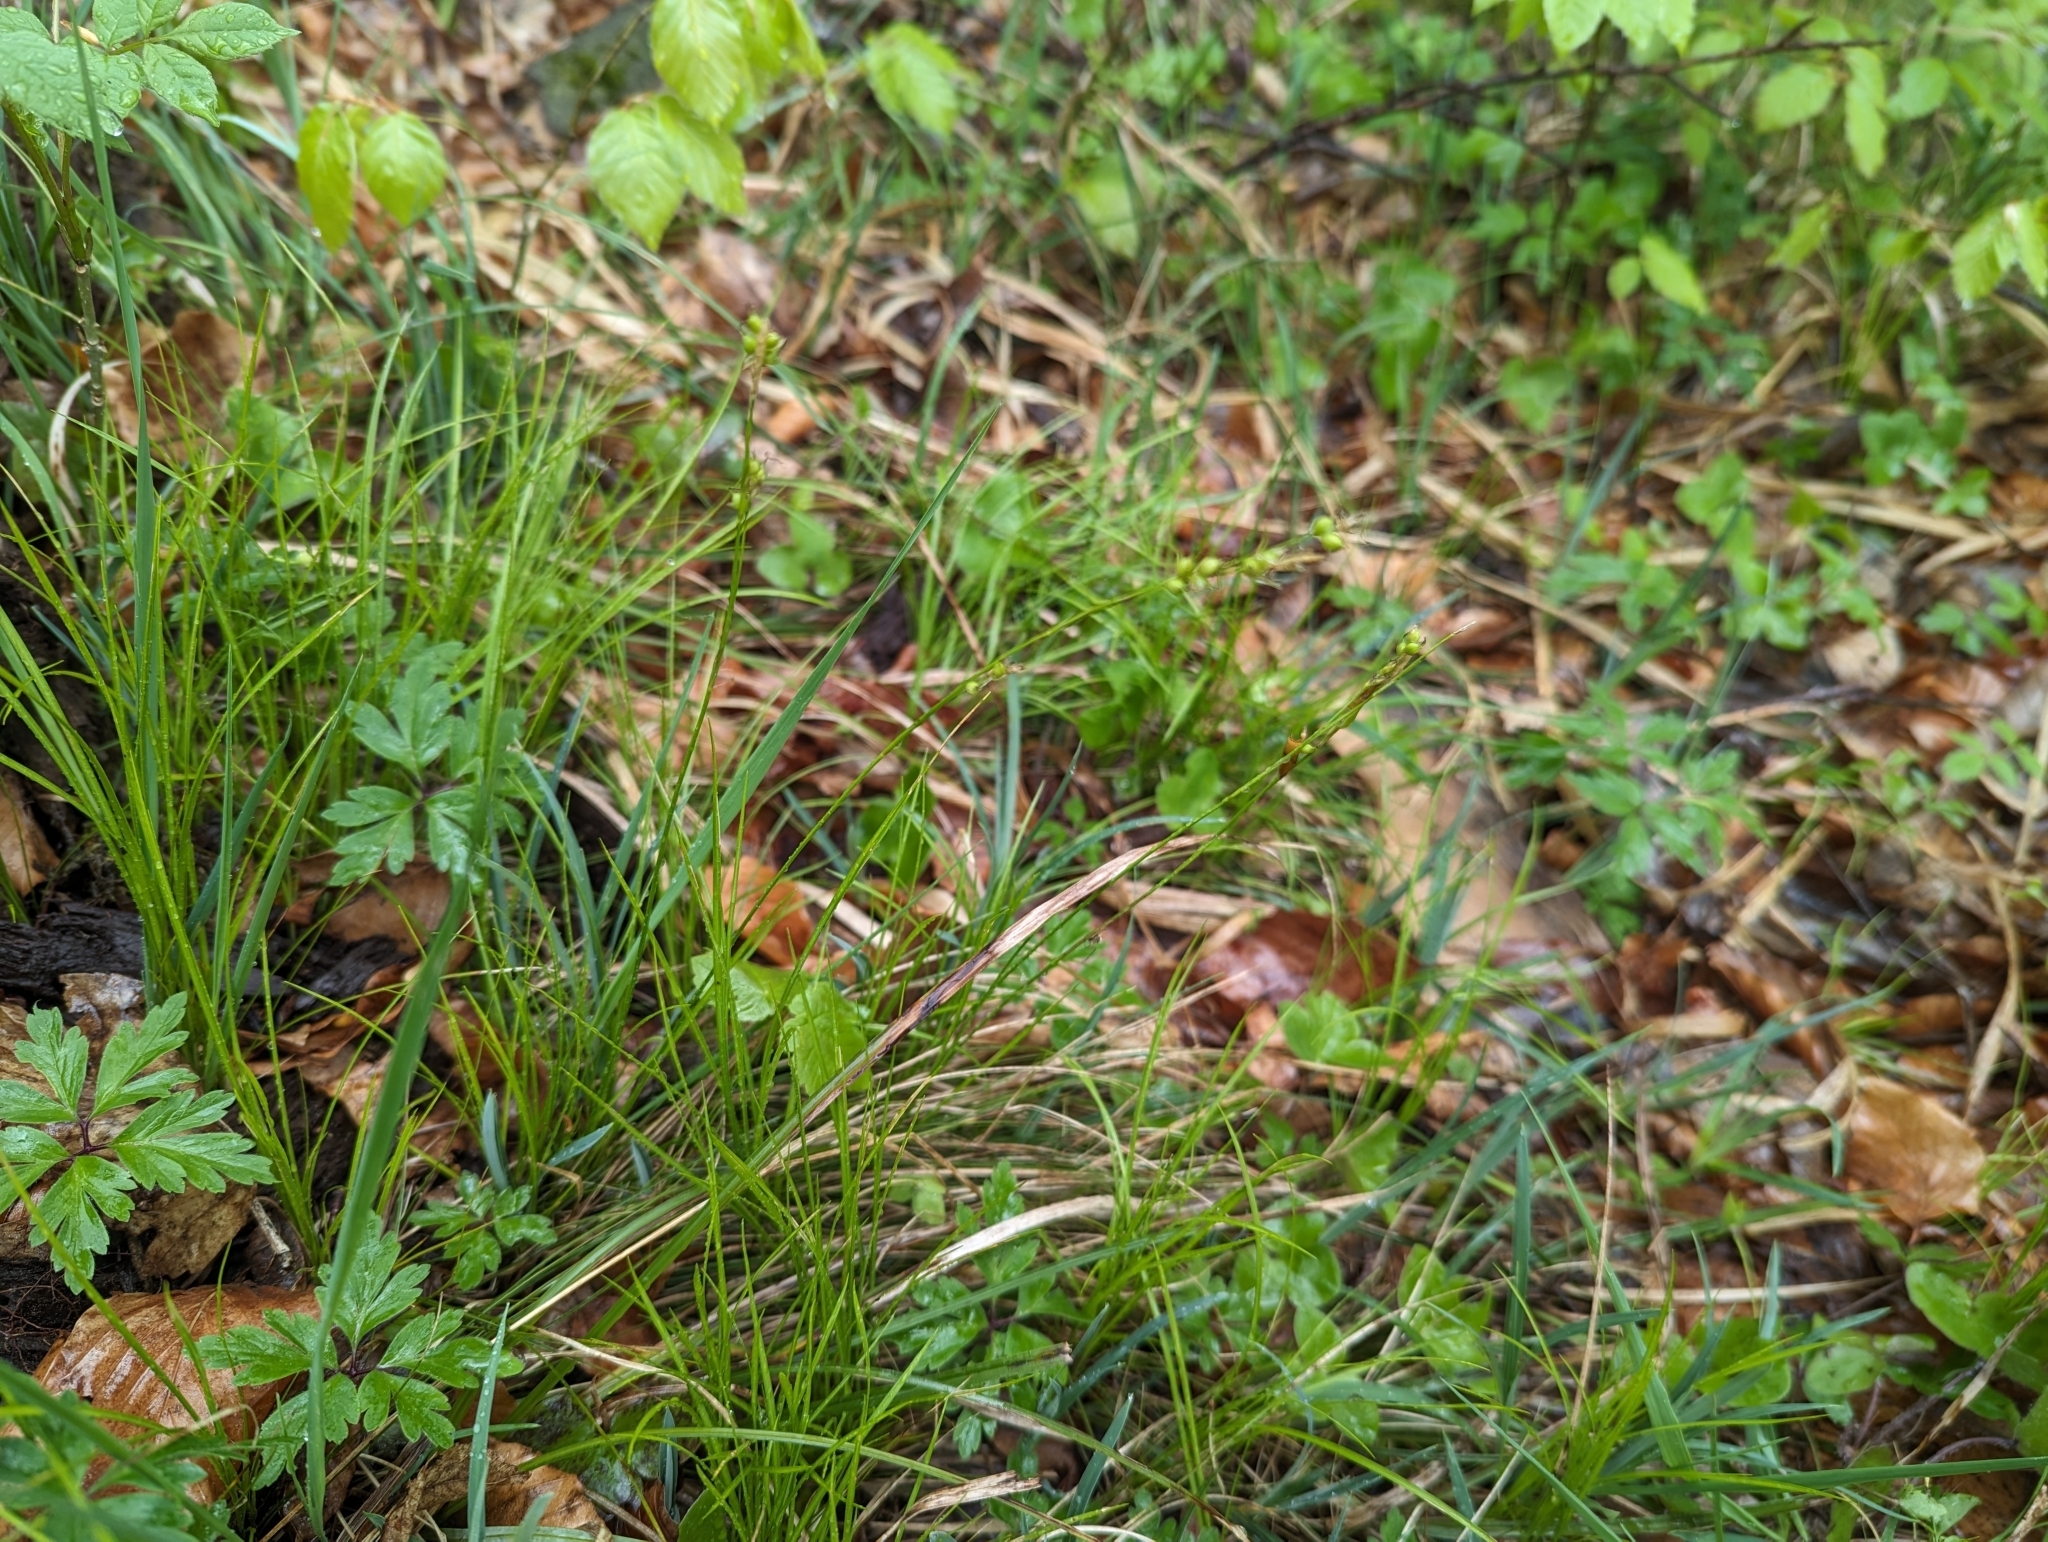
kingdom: Plantae
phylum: Tracheophyta
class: Liliopsida
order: Poales
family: Cyperaceae
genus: Carex
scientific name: Carex alba
